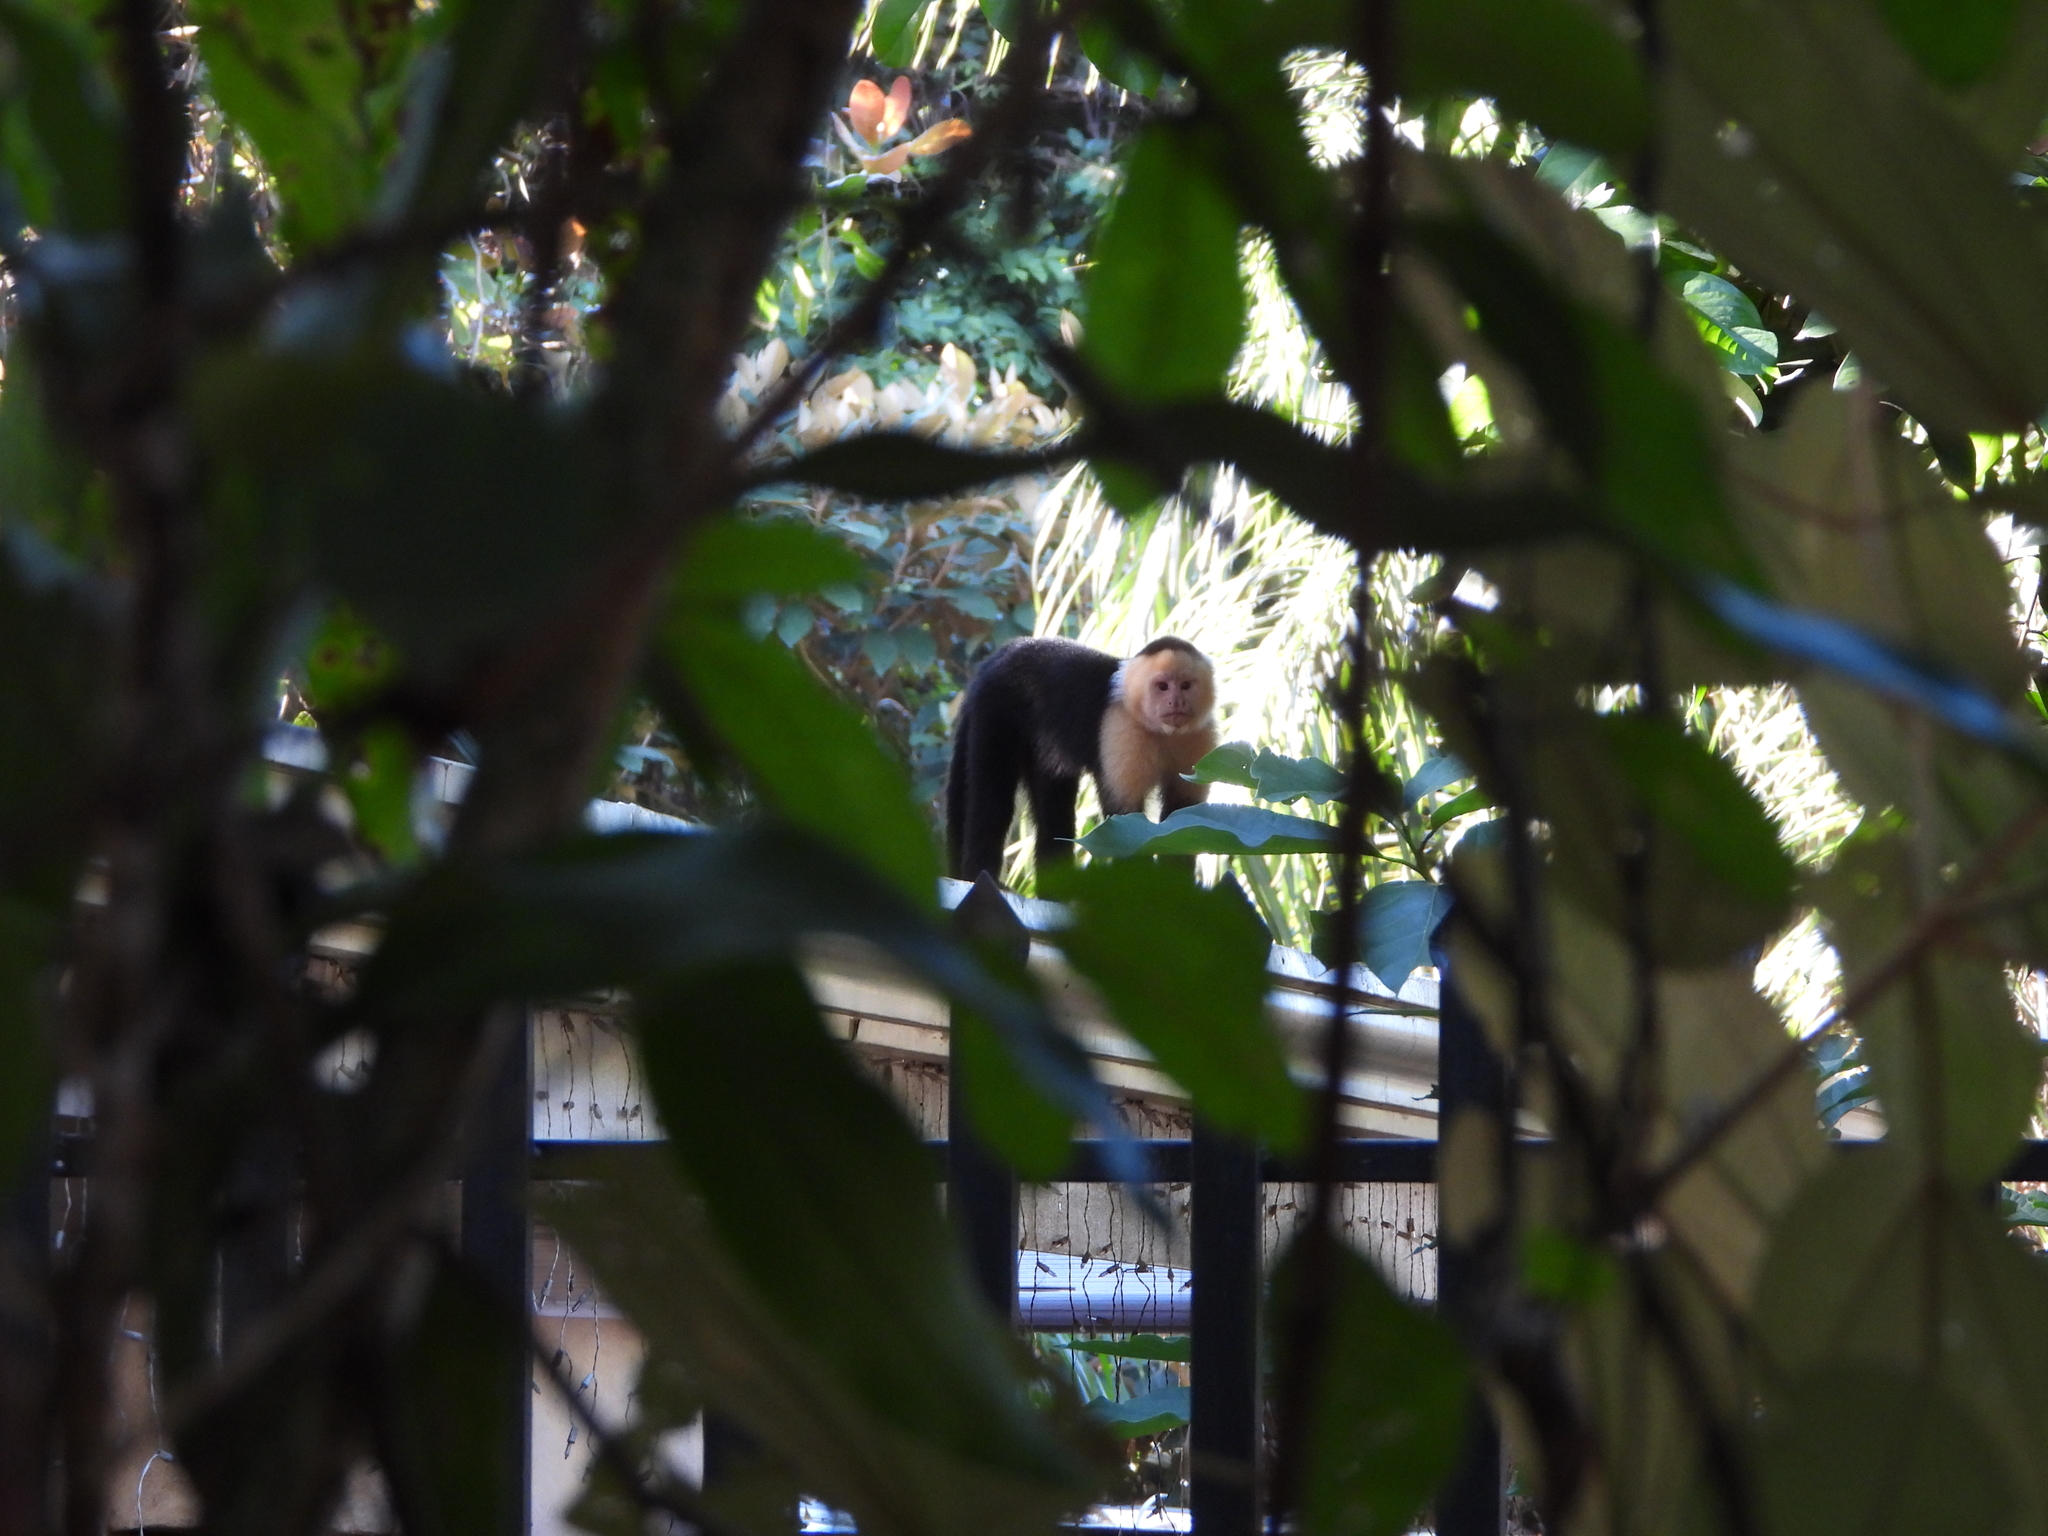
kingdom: Animalia
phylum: Chordata
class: Mammalia
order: Primates
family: Cebidae
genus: Cebus
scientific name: Cebus imitator
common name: Panamanian white-faced capuchin
